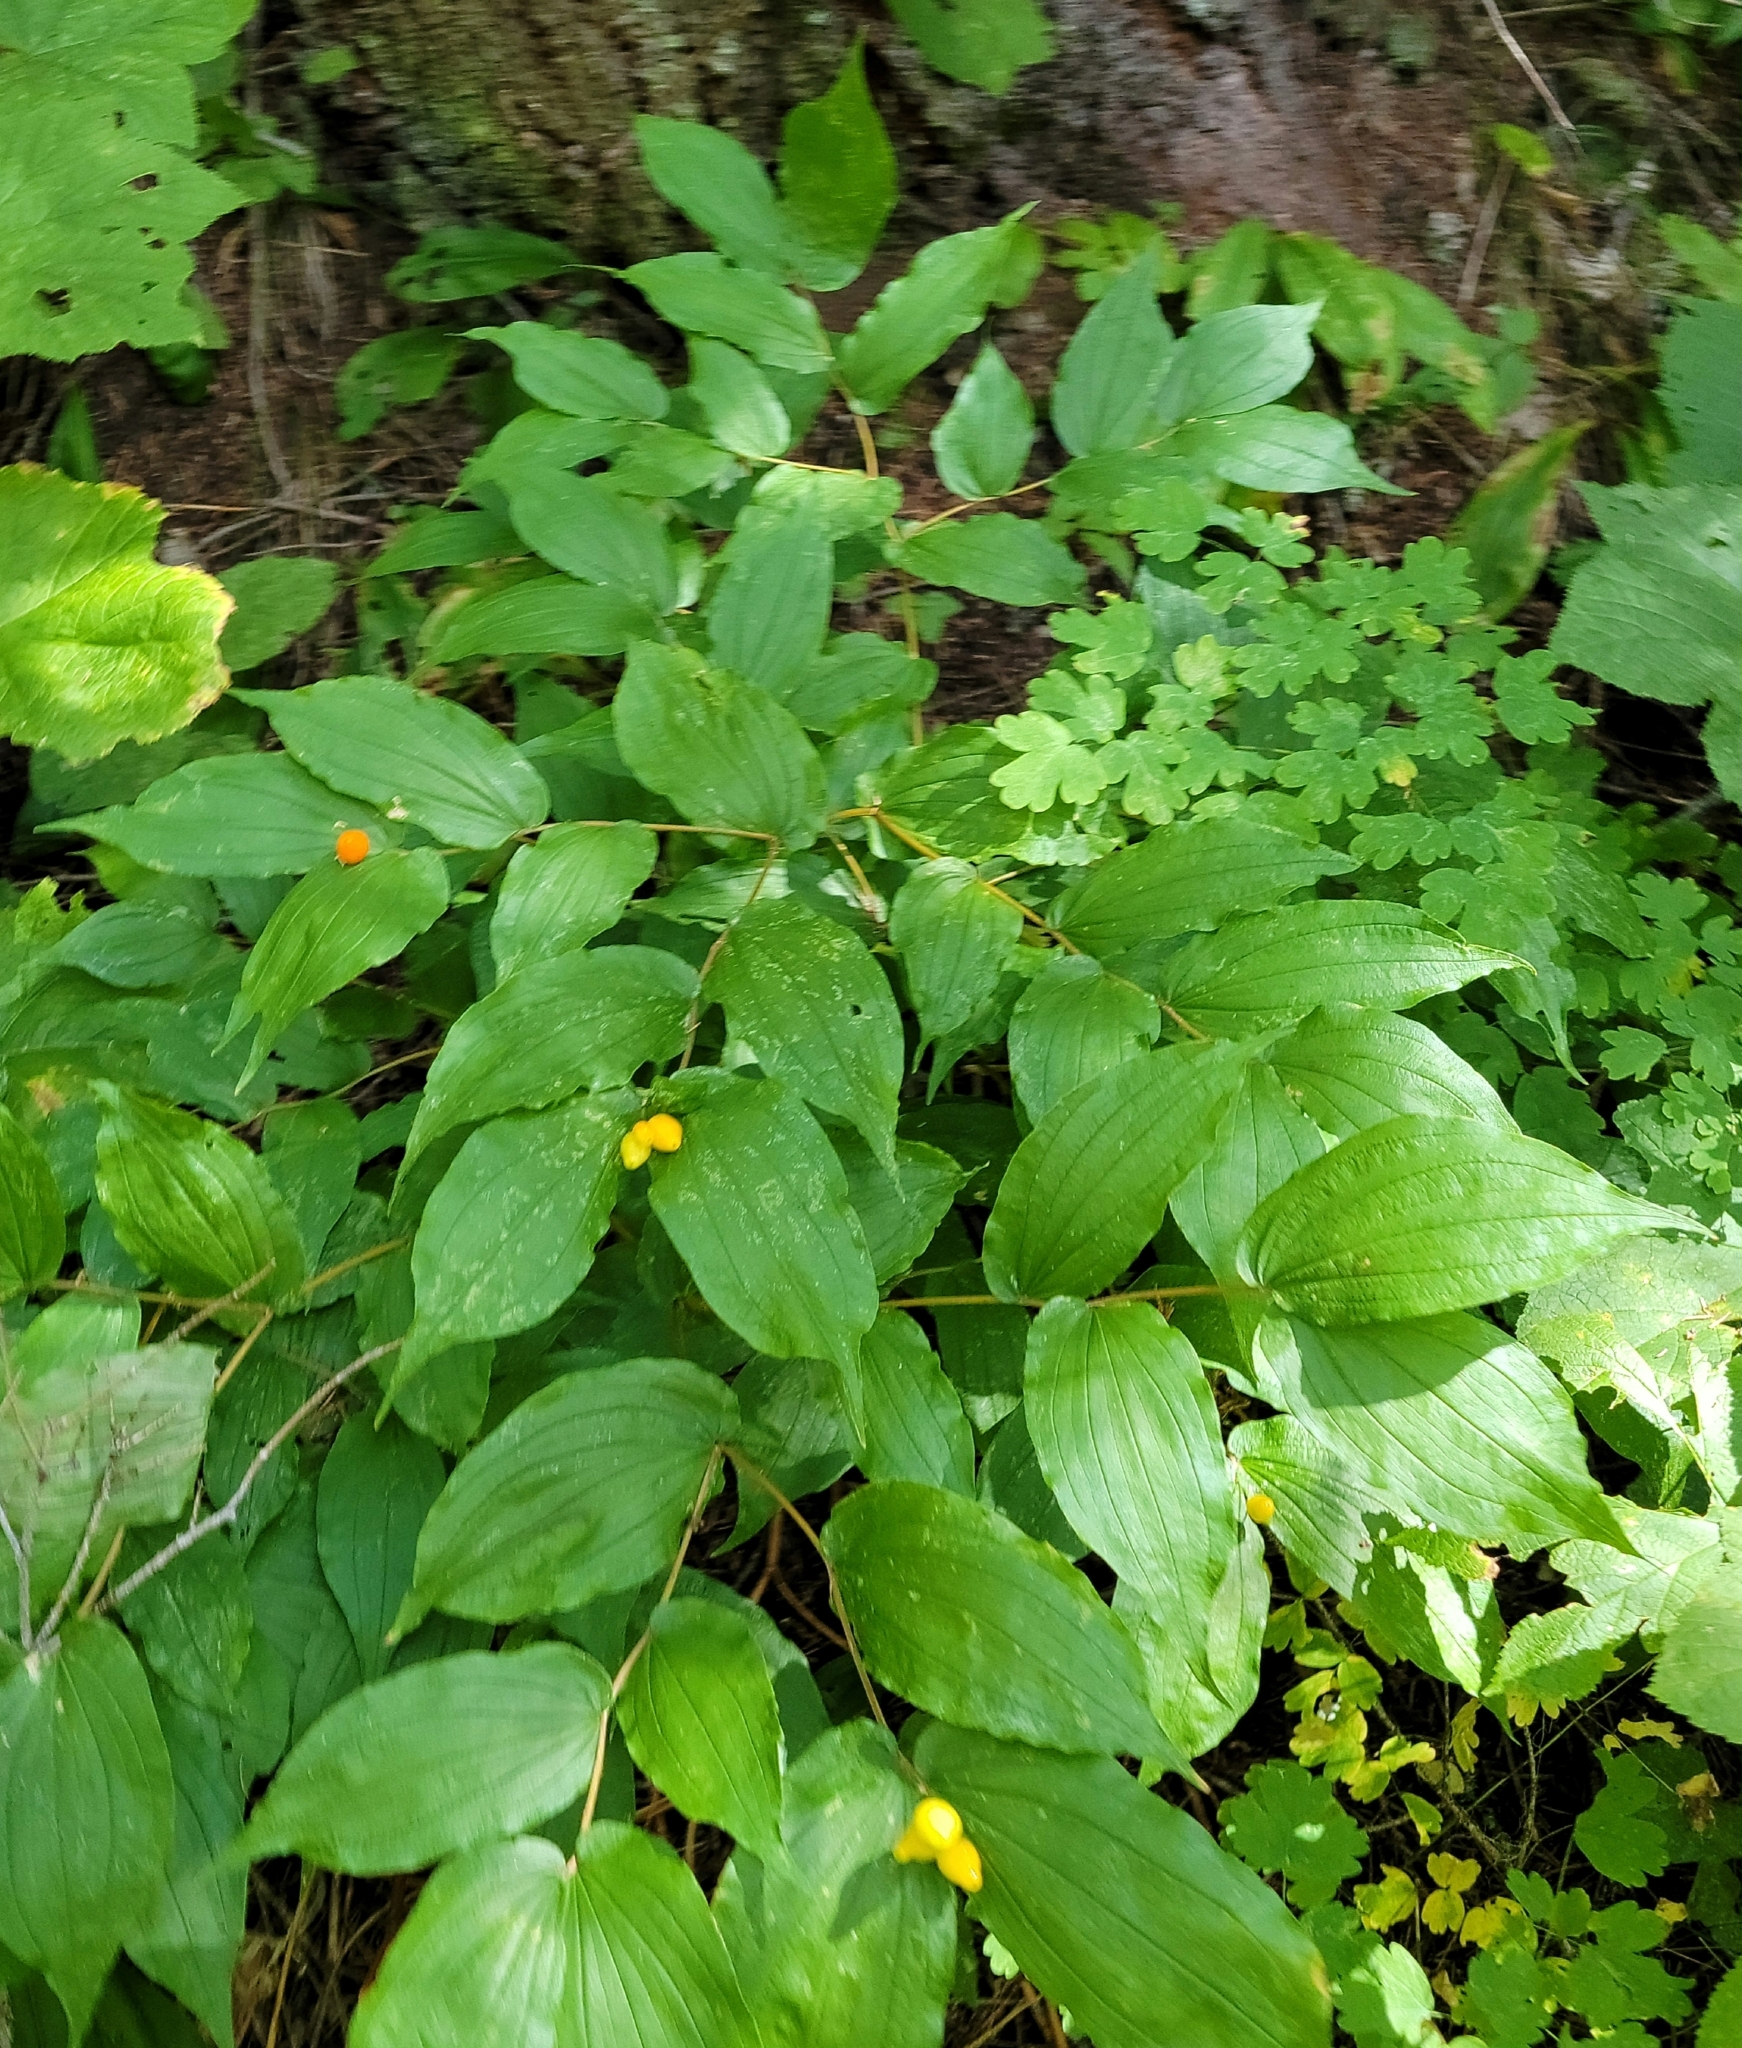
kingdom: Plantae
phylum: Tracheophyta
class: Liliopsida
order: Liliales
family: Liliaceae
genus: Prosartes
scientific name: Prosartes hookeri
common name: Fairy-bells
